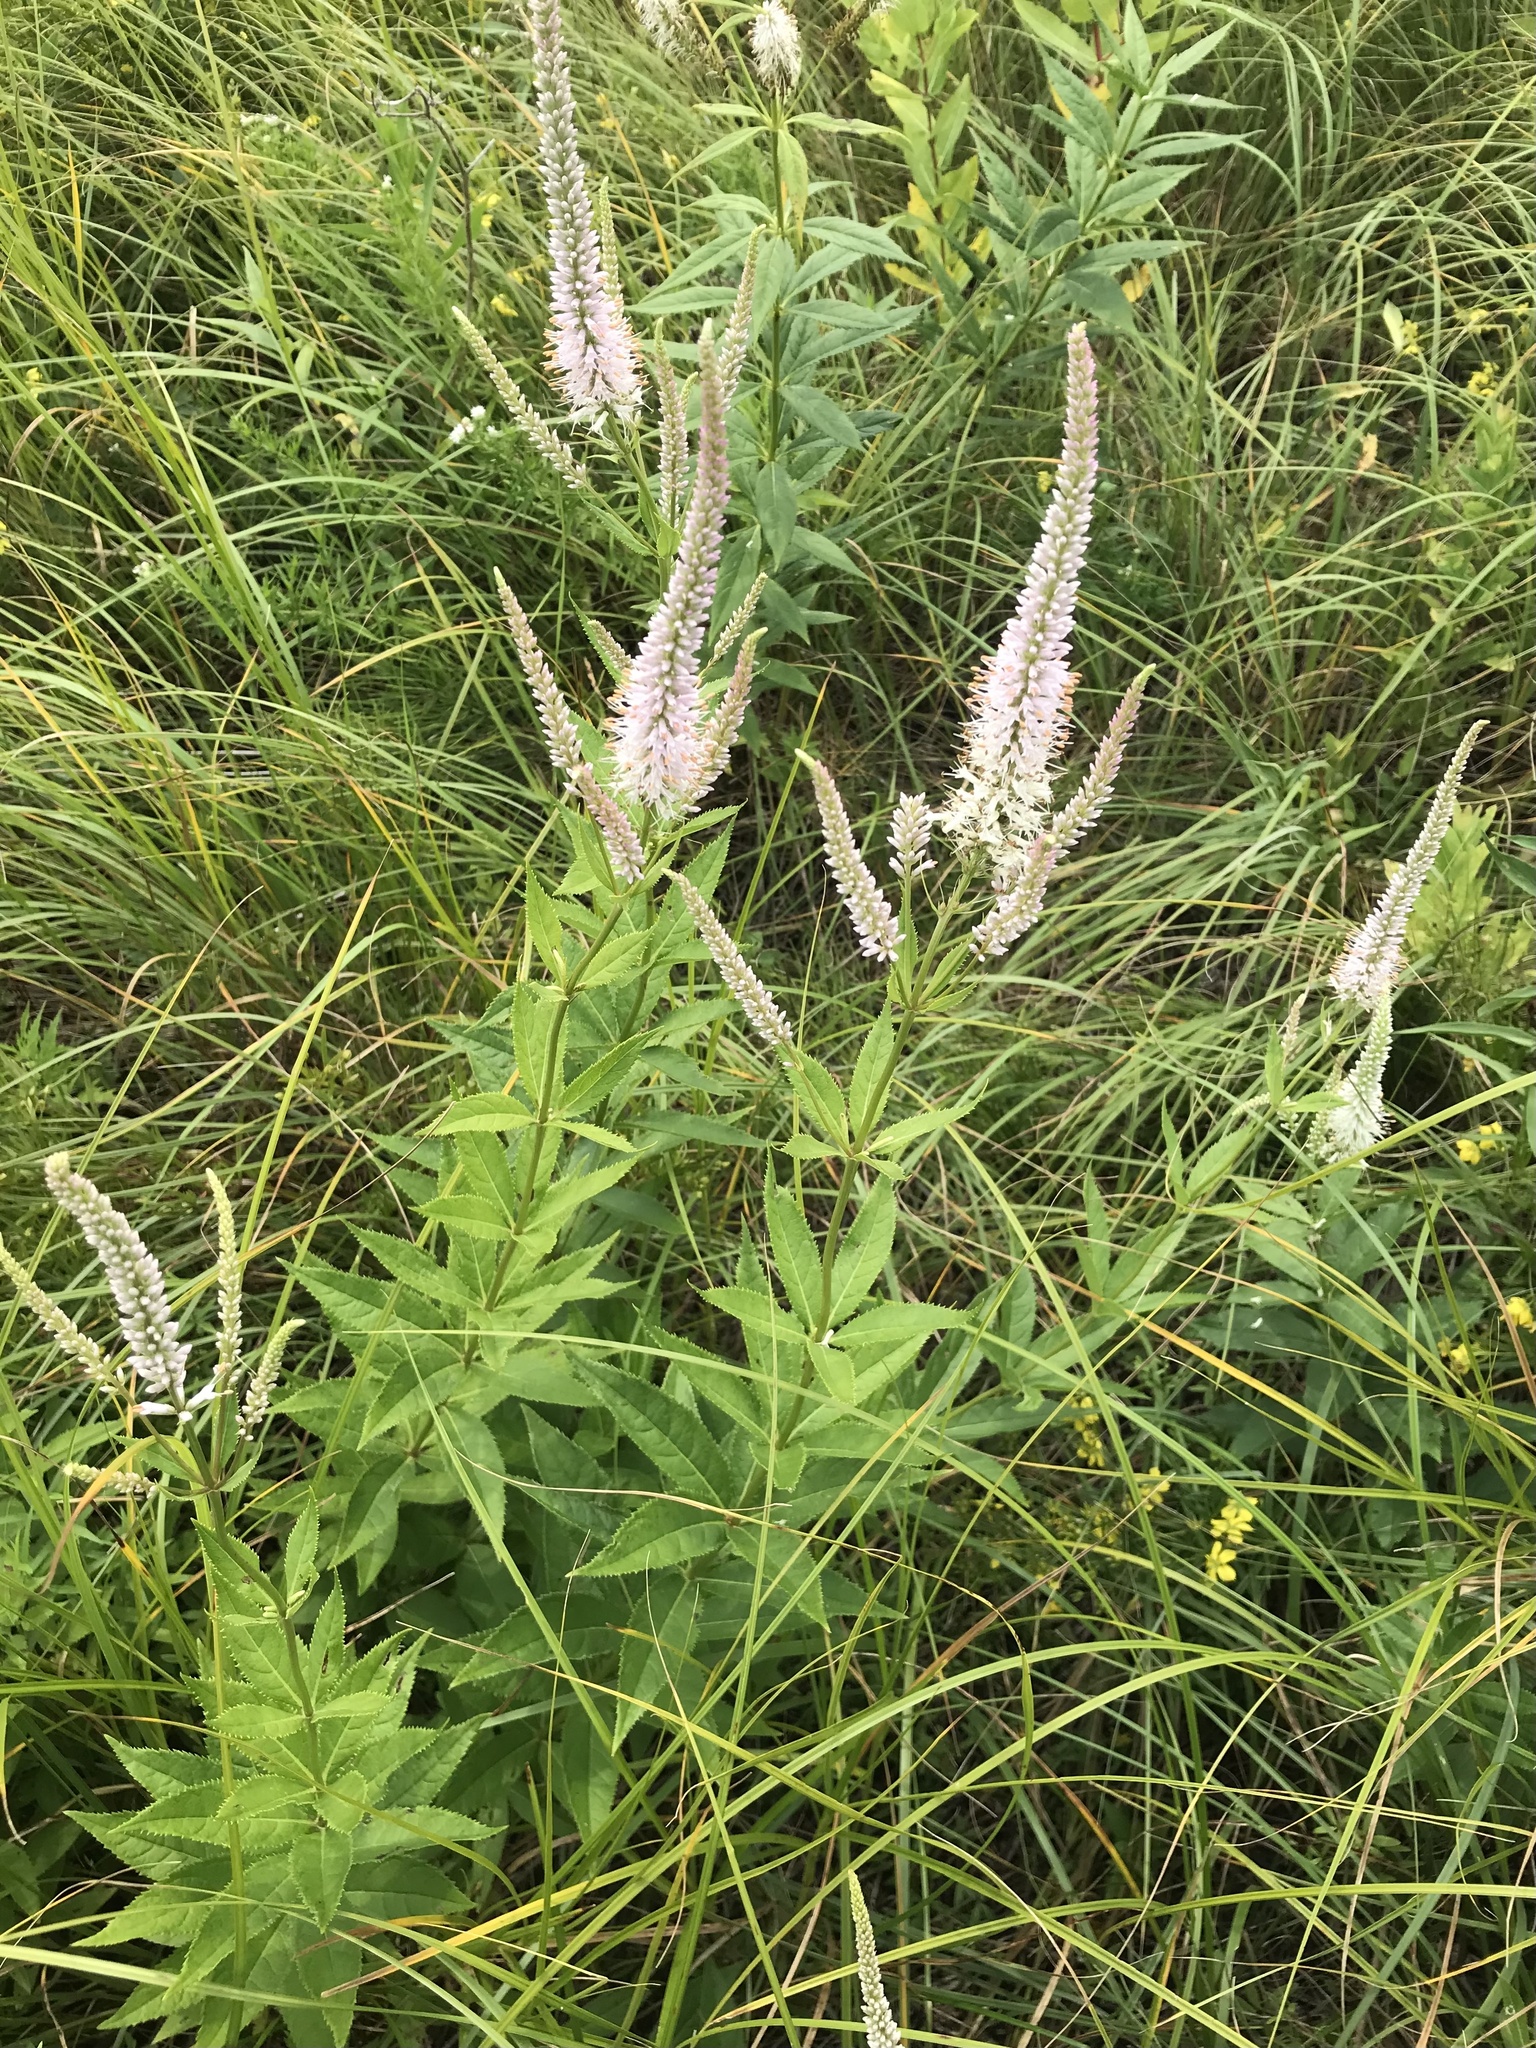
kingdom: Plantae
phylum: Tracheophyta
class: Magnoliopsida
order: Lamiales
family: Plantaginaceae
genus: Veronicastrum
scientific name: Veronicastrum virginicum
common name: Blackroot
